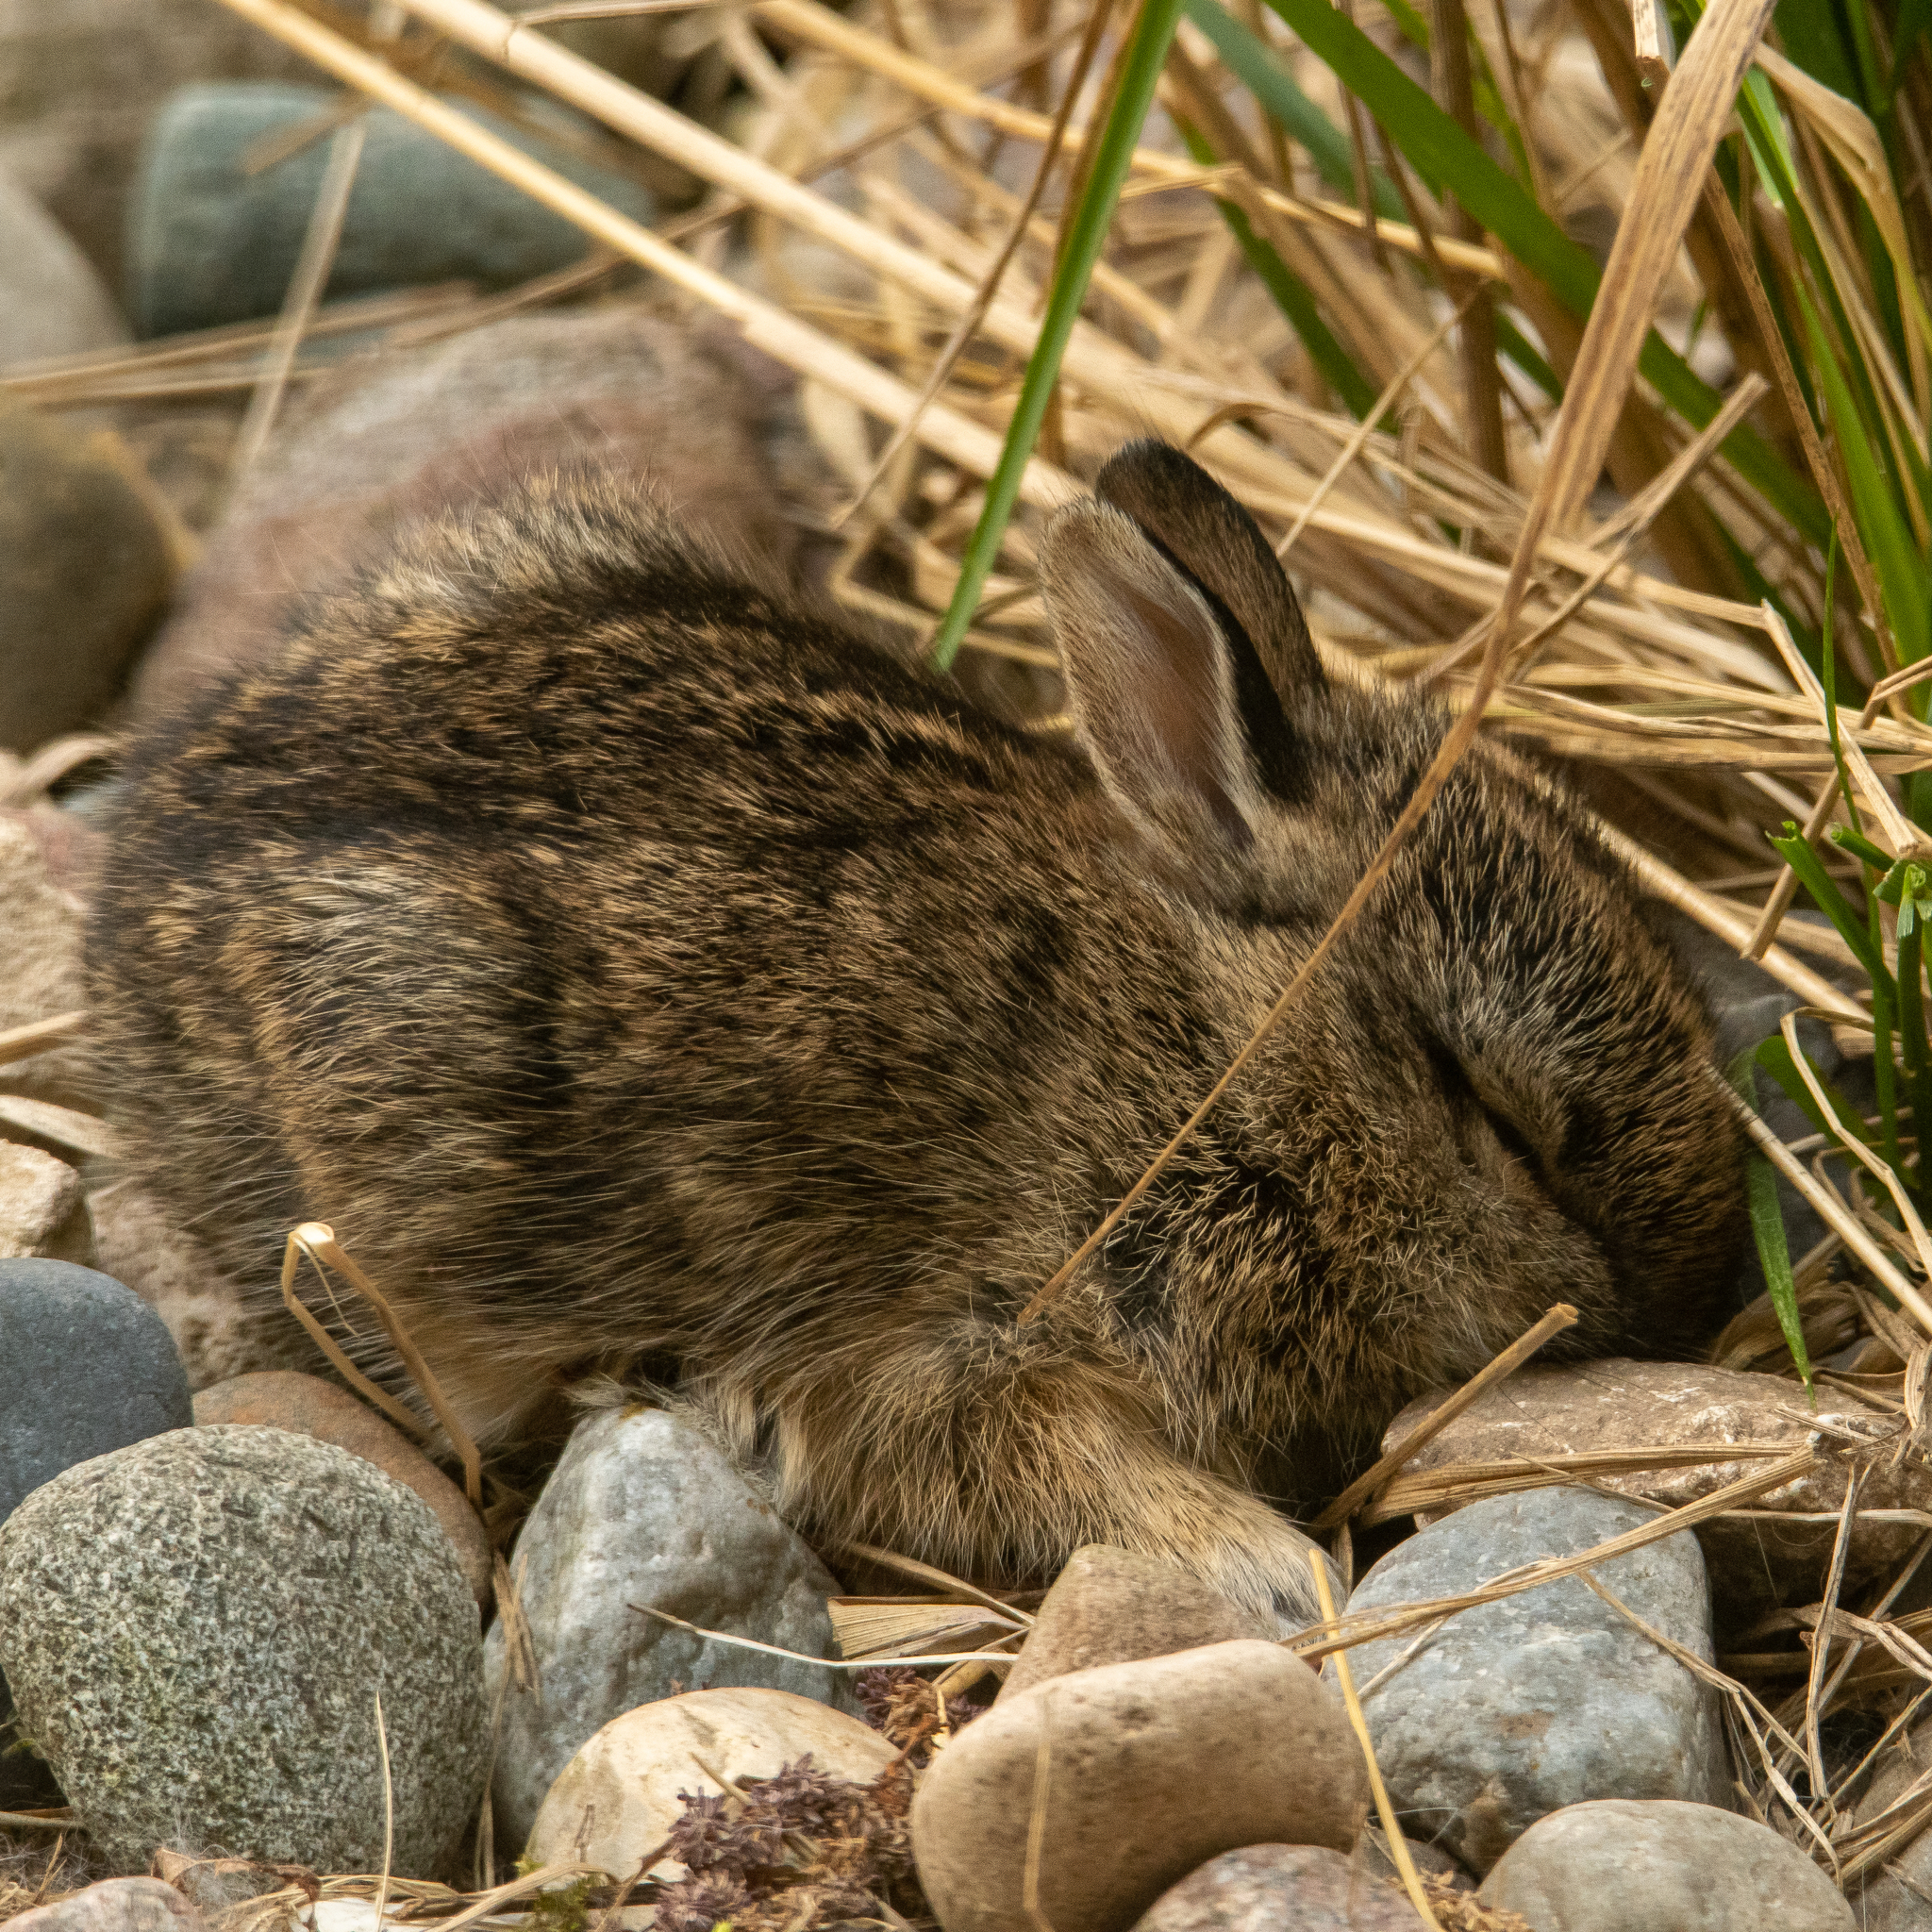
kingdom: Animalia
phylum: Chordata
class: Mammalia
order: Lagomorpha
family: Leporidae
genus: Sylvilagus
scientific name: Sylvilagus floridanus
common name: Eastern cottontail
